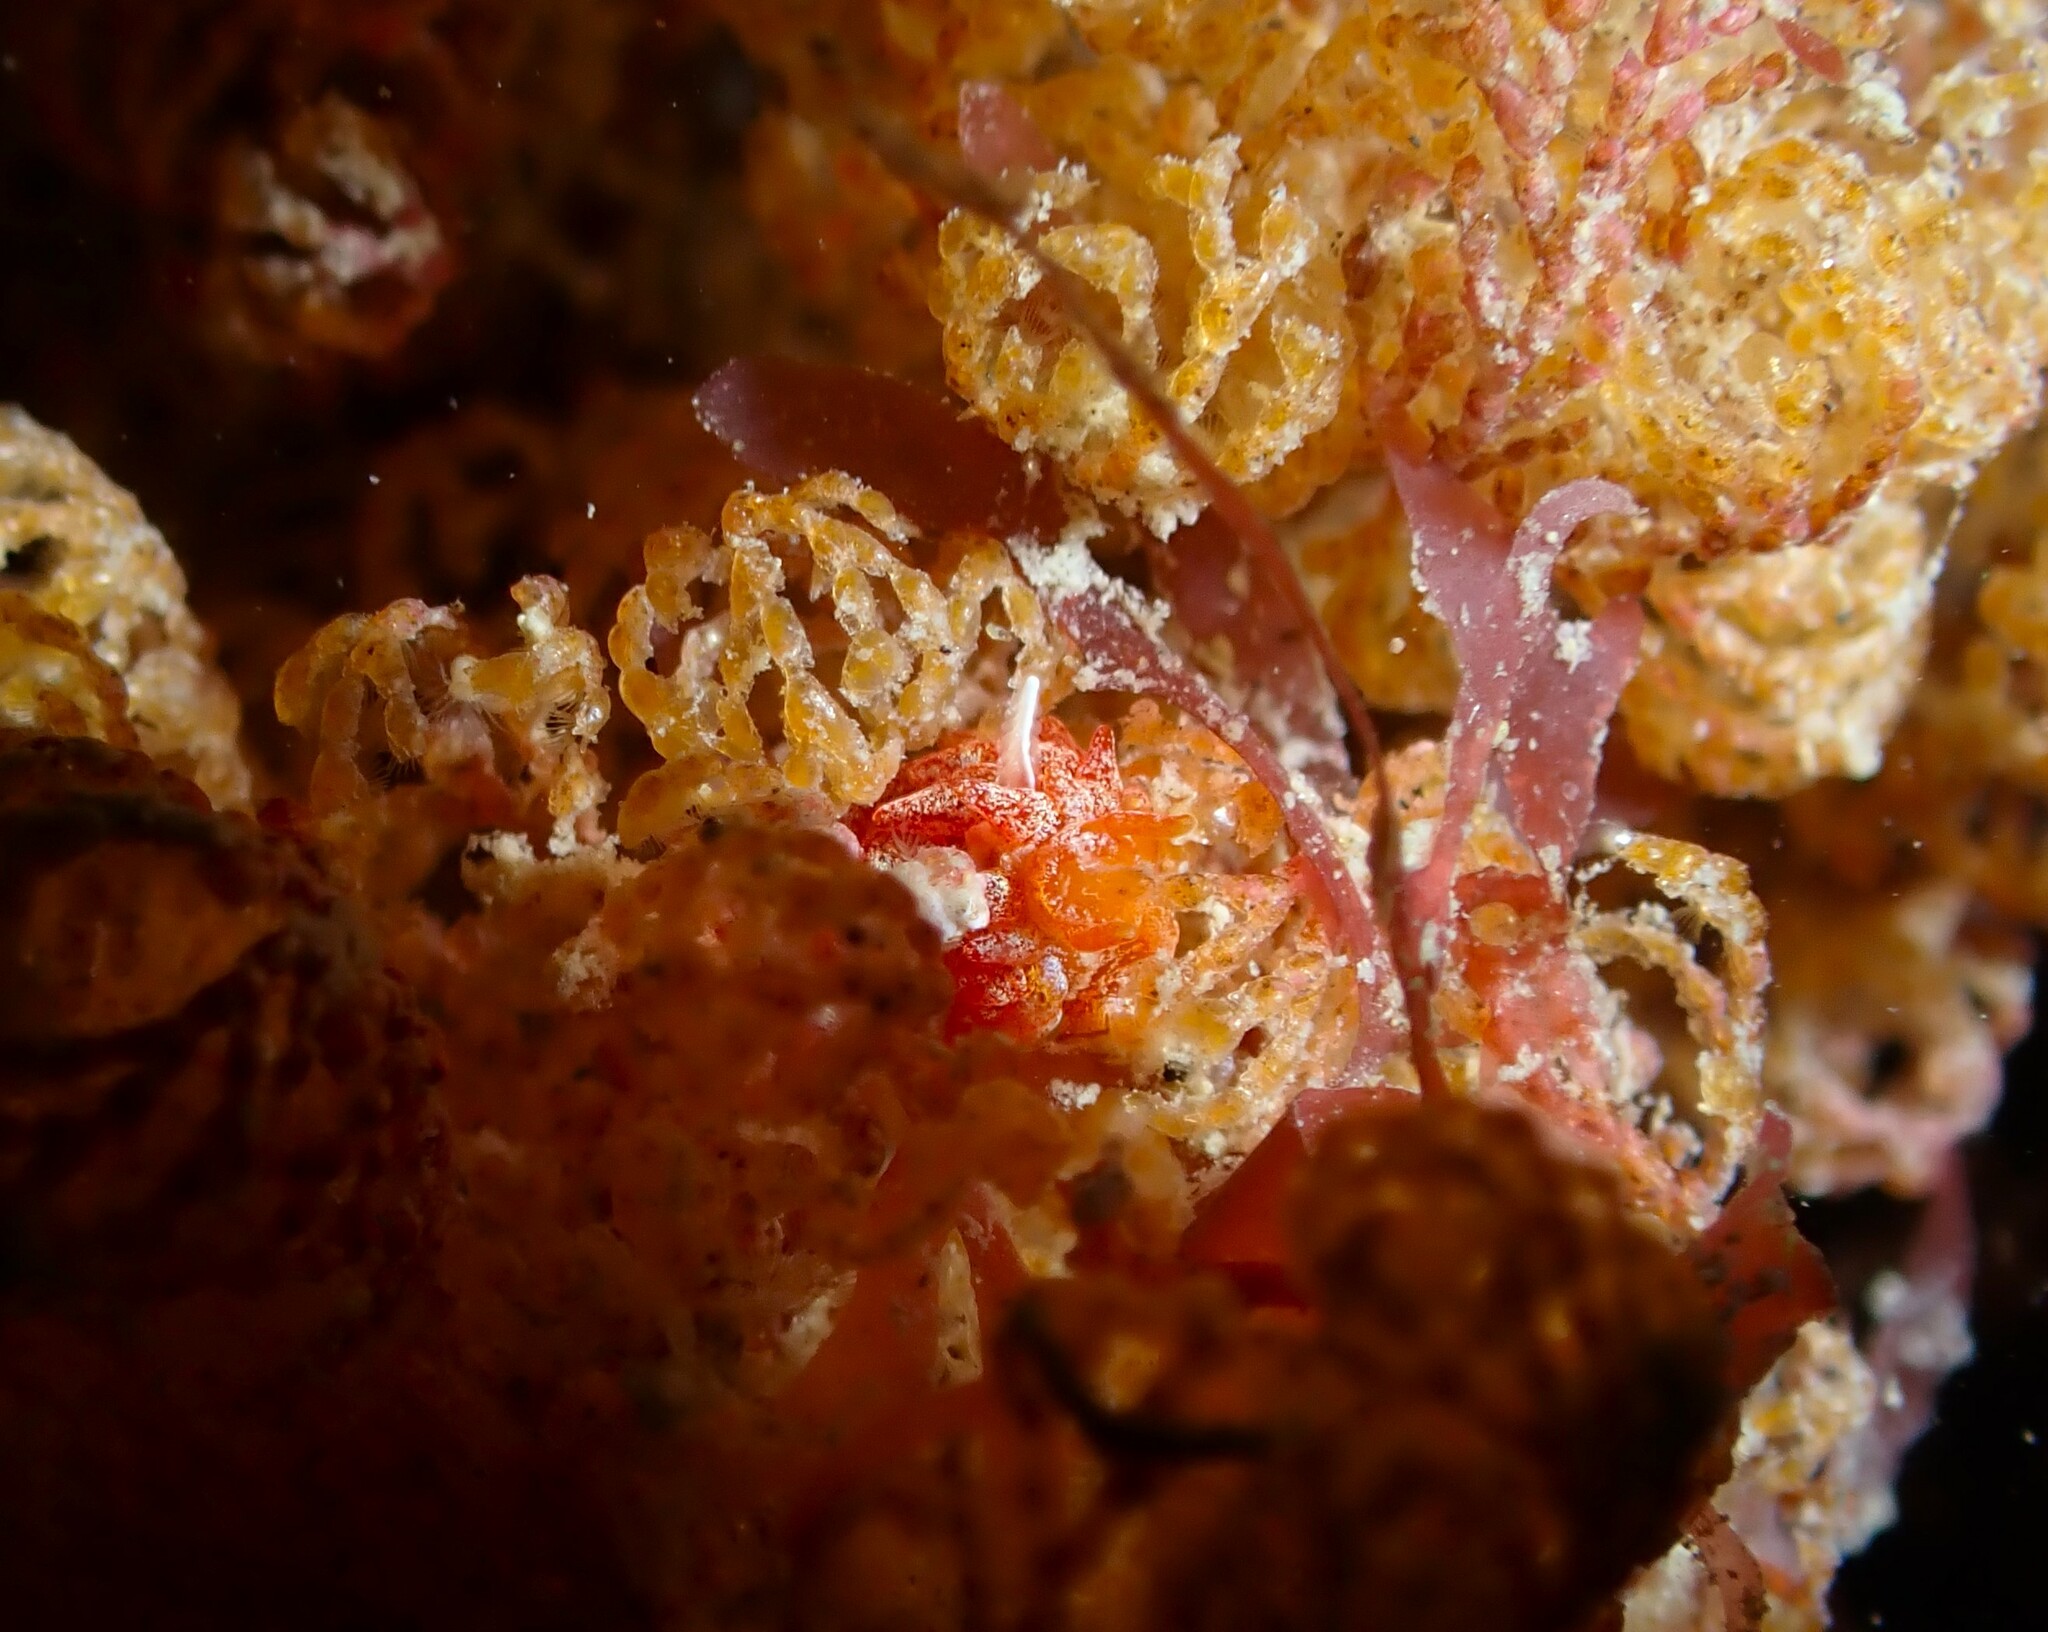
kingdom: Animalia
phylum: Mollusca
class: Gastropoda
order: Nudibranchia
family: Janolidae
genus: Janolus
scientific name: Janolus ignis
